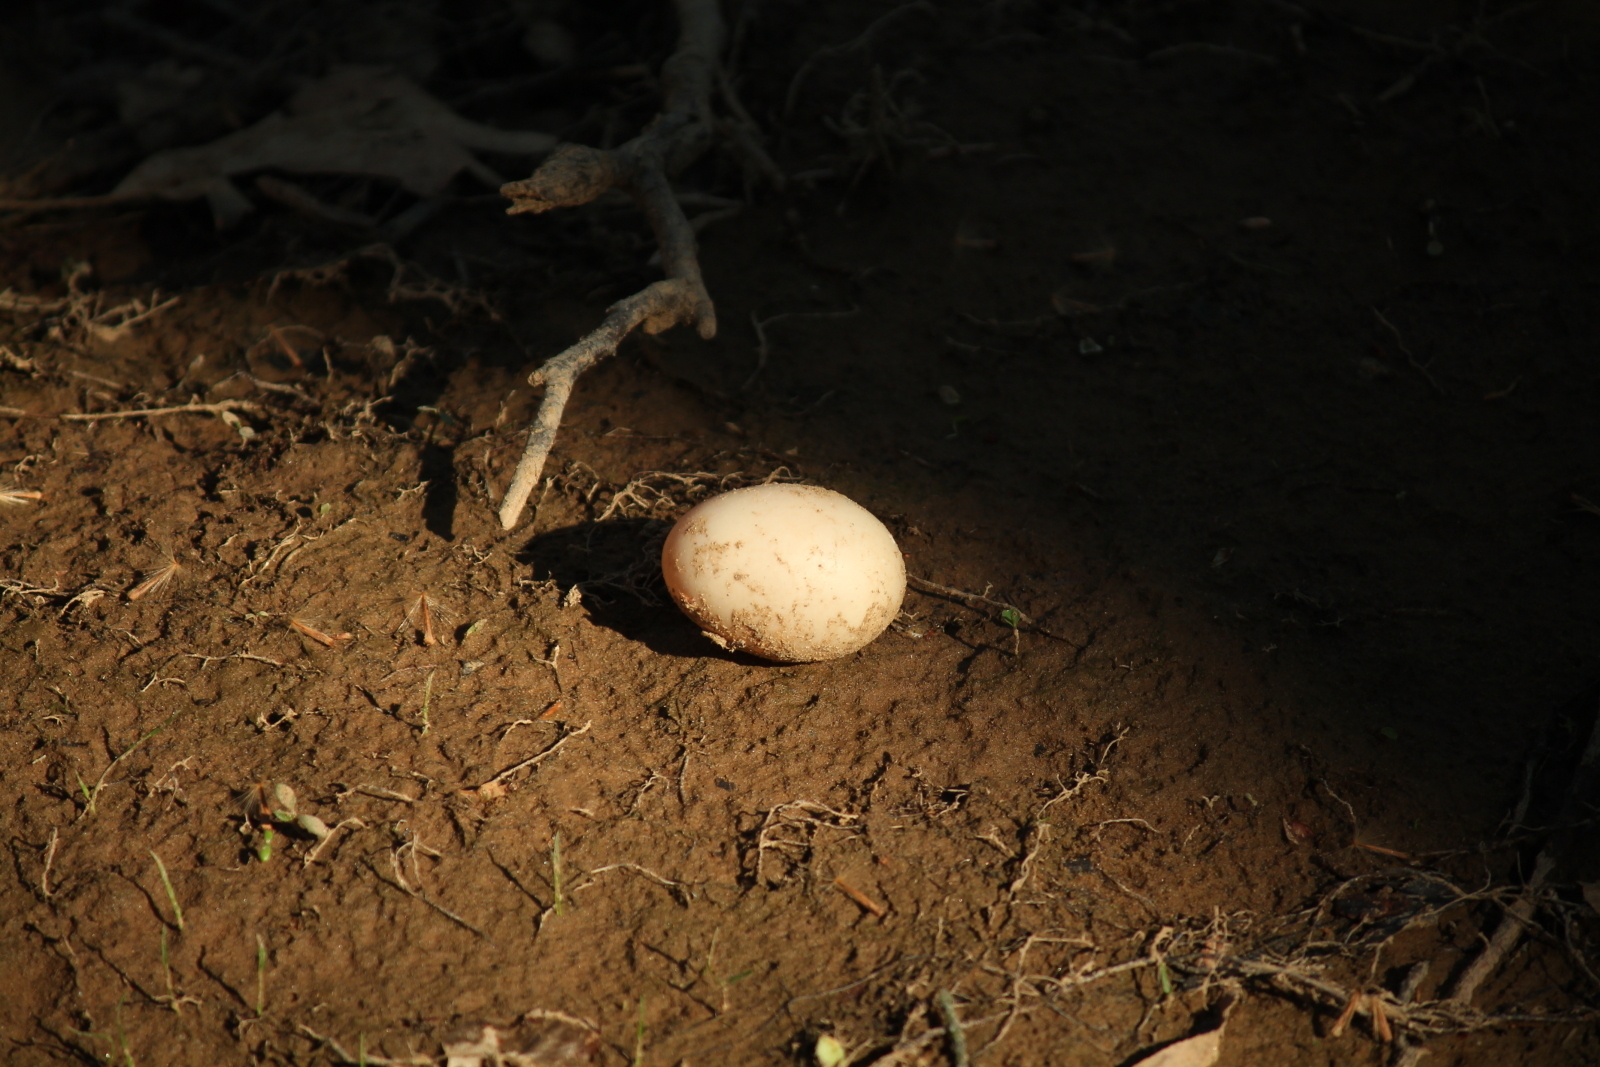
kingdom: Animalia
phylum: Chordata
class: Aves
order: Anseriformes
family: Anatidae
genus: Aix
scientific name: Aix sponsa
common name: Wood duck
